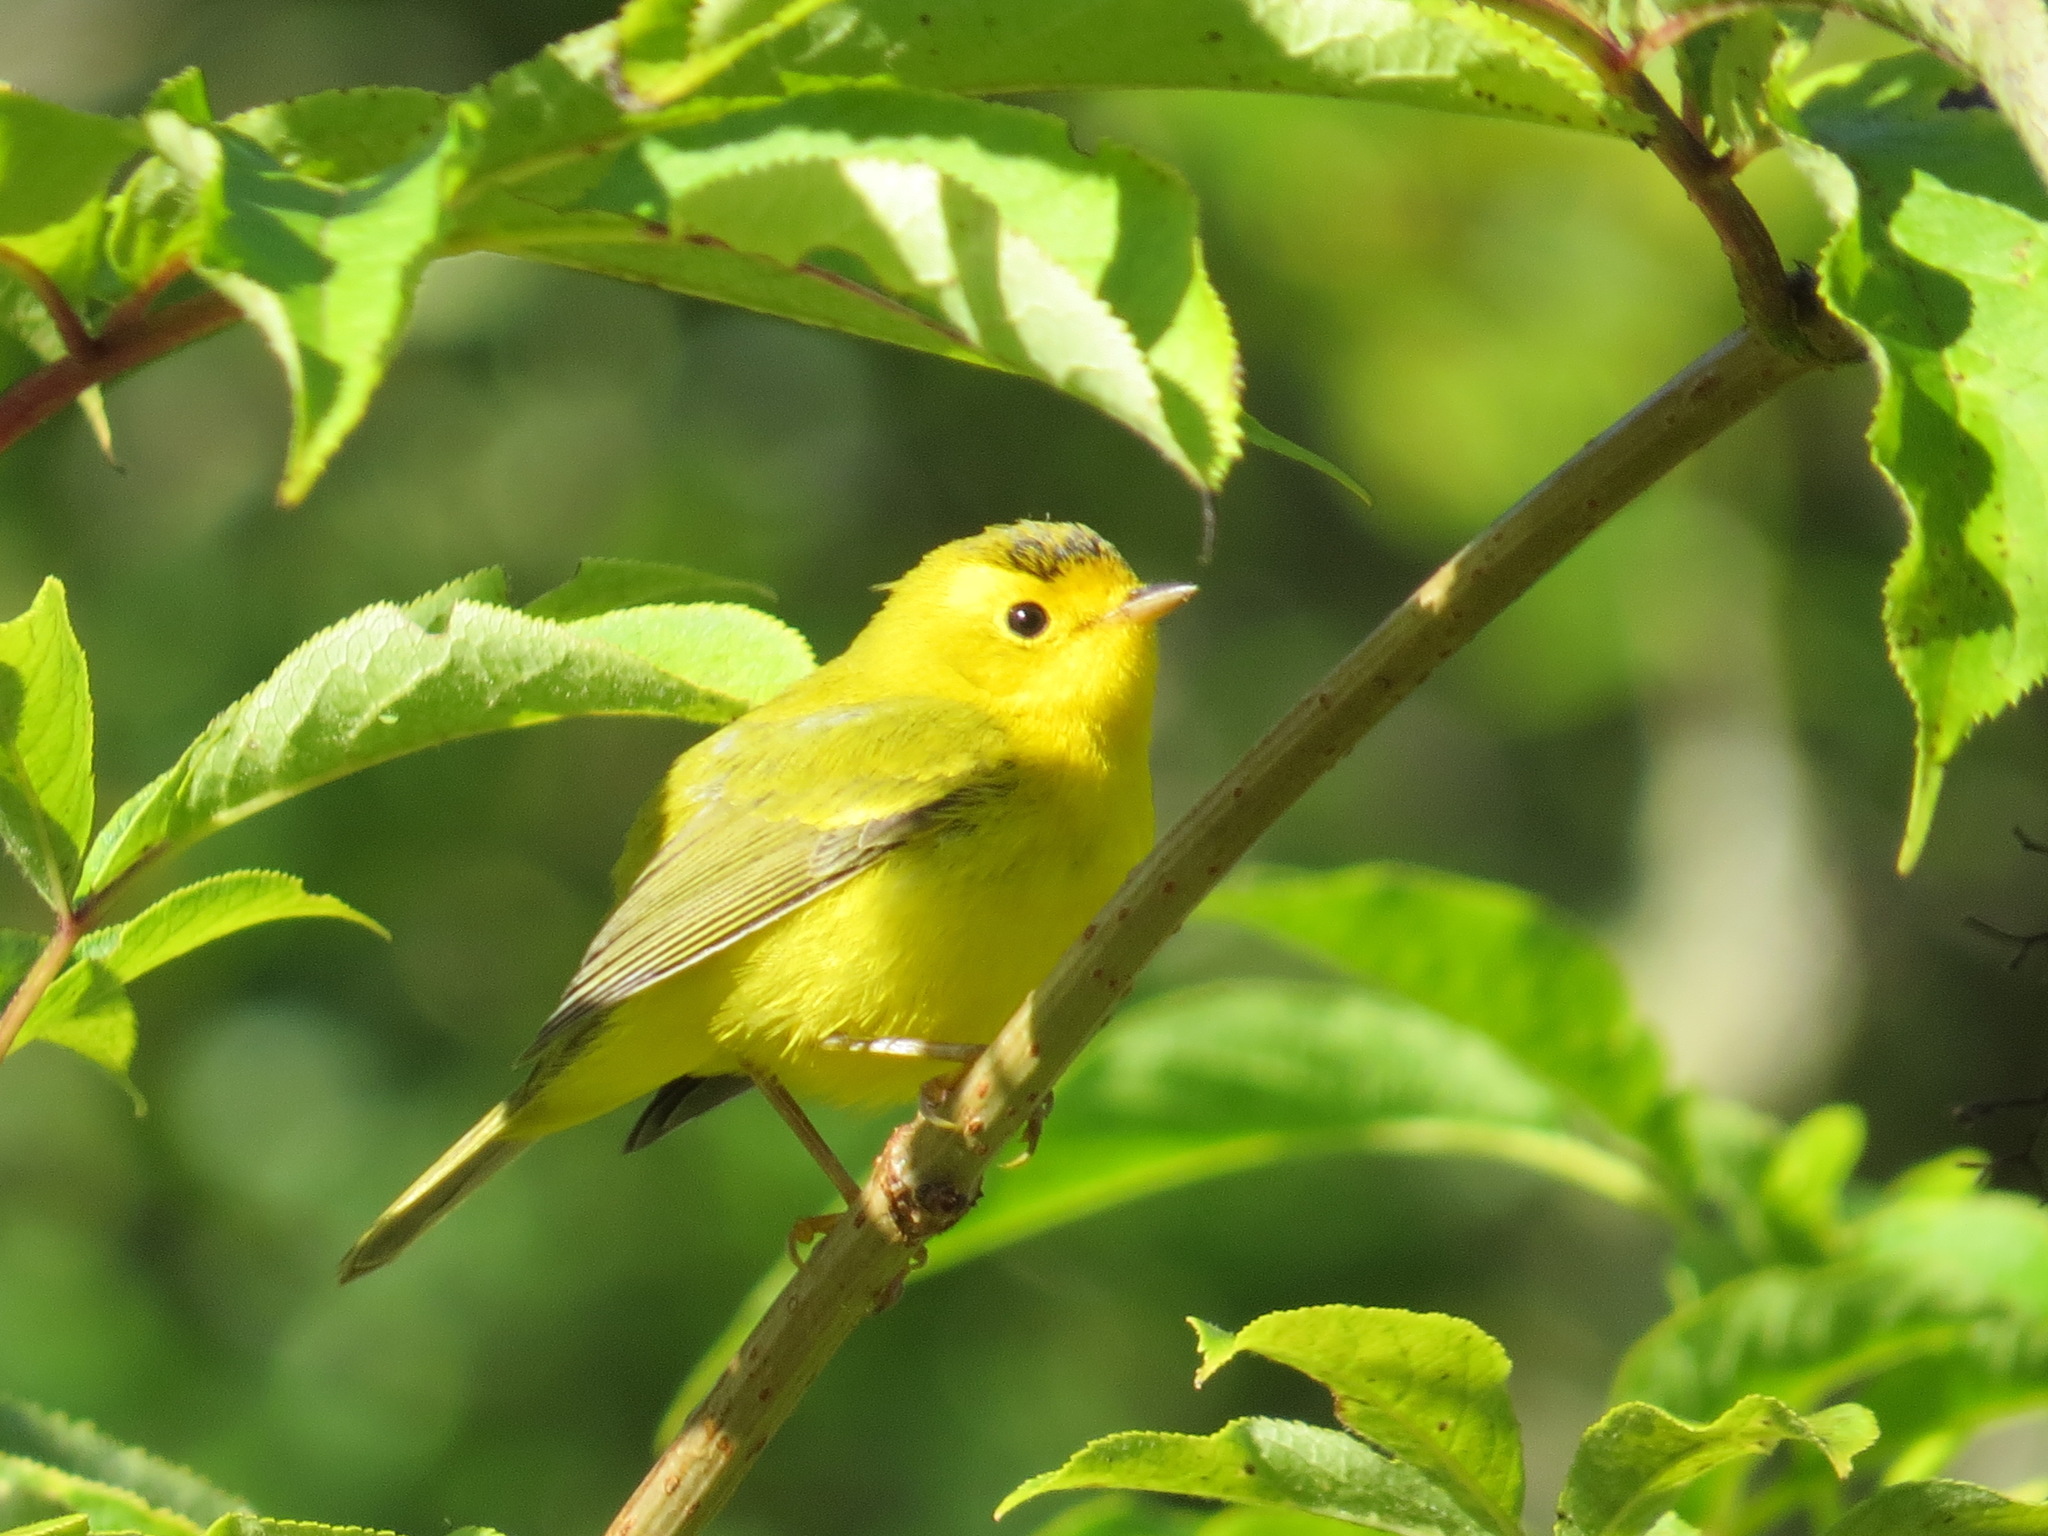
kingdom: Animalia
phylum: Chordata
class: Aves
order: Passeriformes
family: Parulidae
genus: Cardellina
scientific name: Cardellina pusilla
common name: Wilson's warbler
